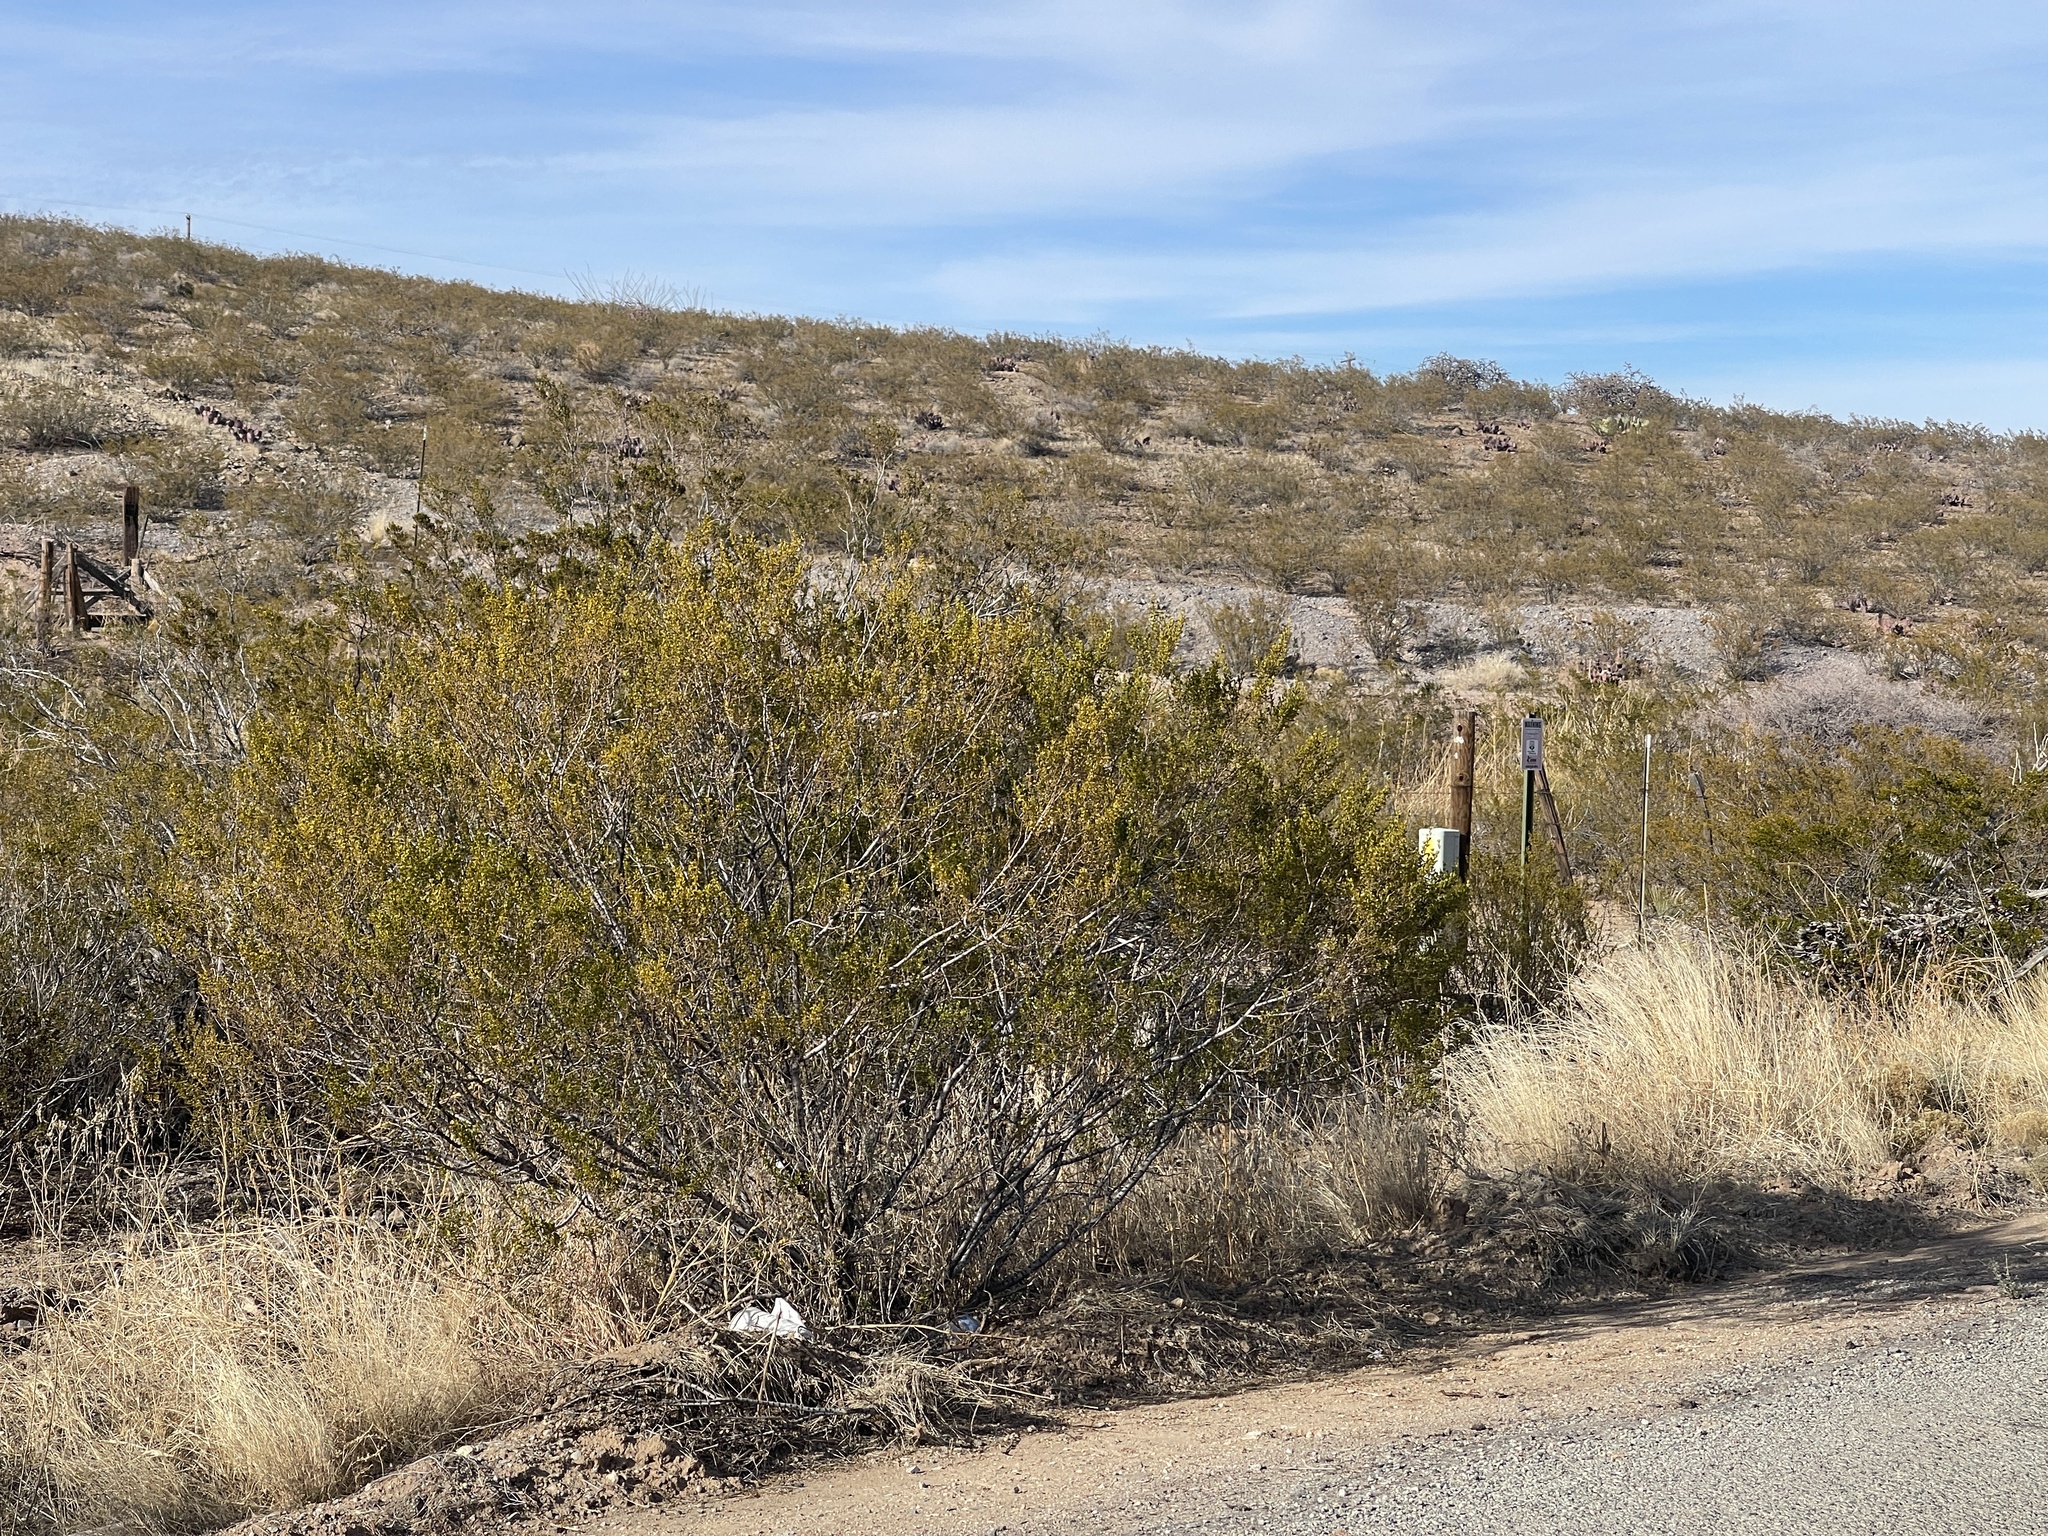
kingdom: Plantae
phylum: Tracheophyta
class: Magnoliopsida
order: Zygophyllales
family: Zygophyllaceae
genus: Larrea
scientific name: Larrea tridentata
